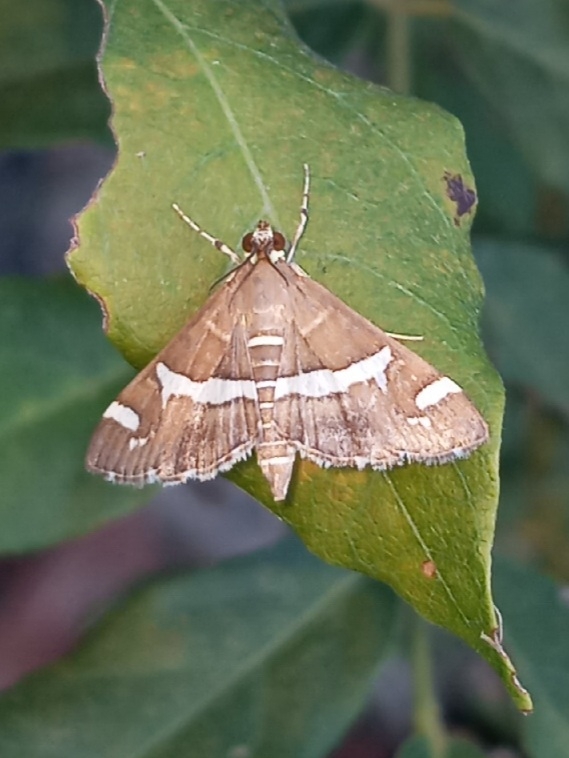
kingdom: Animalia
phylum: Arthropoda
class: Insecta
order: Lepidoptera
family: Crambidae
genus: Spoladea
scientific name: Spoladea recurvalis
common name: Beet webworm moth
